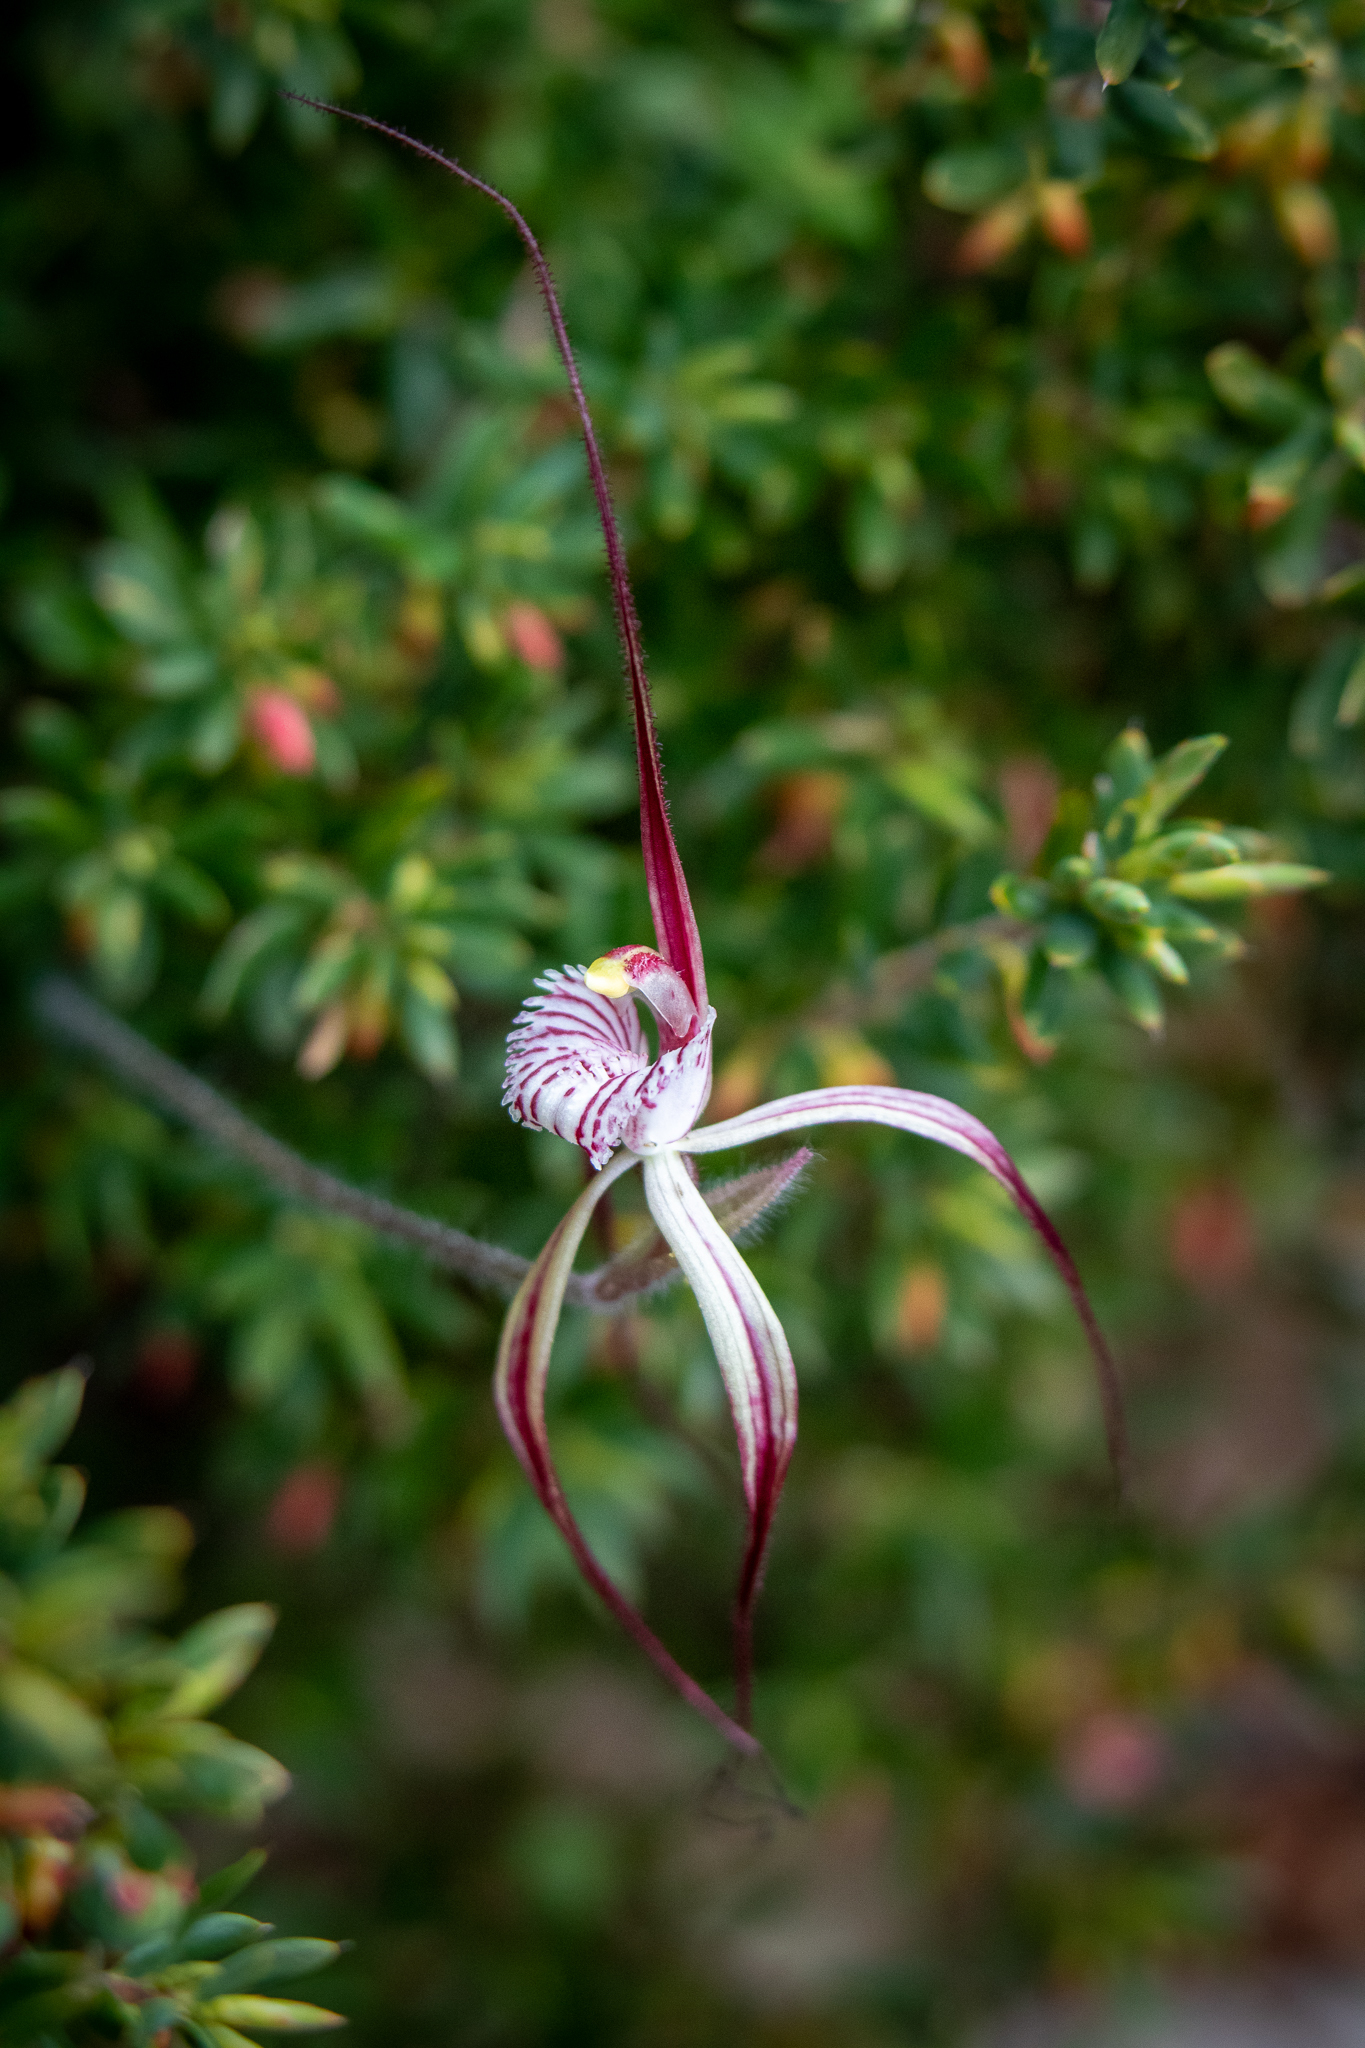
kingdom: Plantae
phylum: Tracheophyta
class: Liliopsida
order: Asparagales
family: Orchidaceae
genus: Caladenia
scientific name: Caladenia chapmanii
